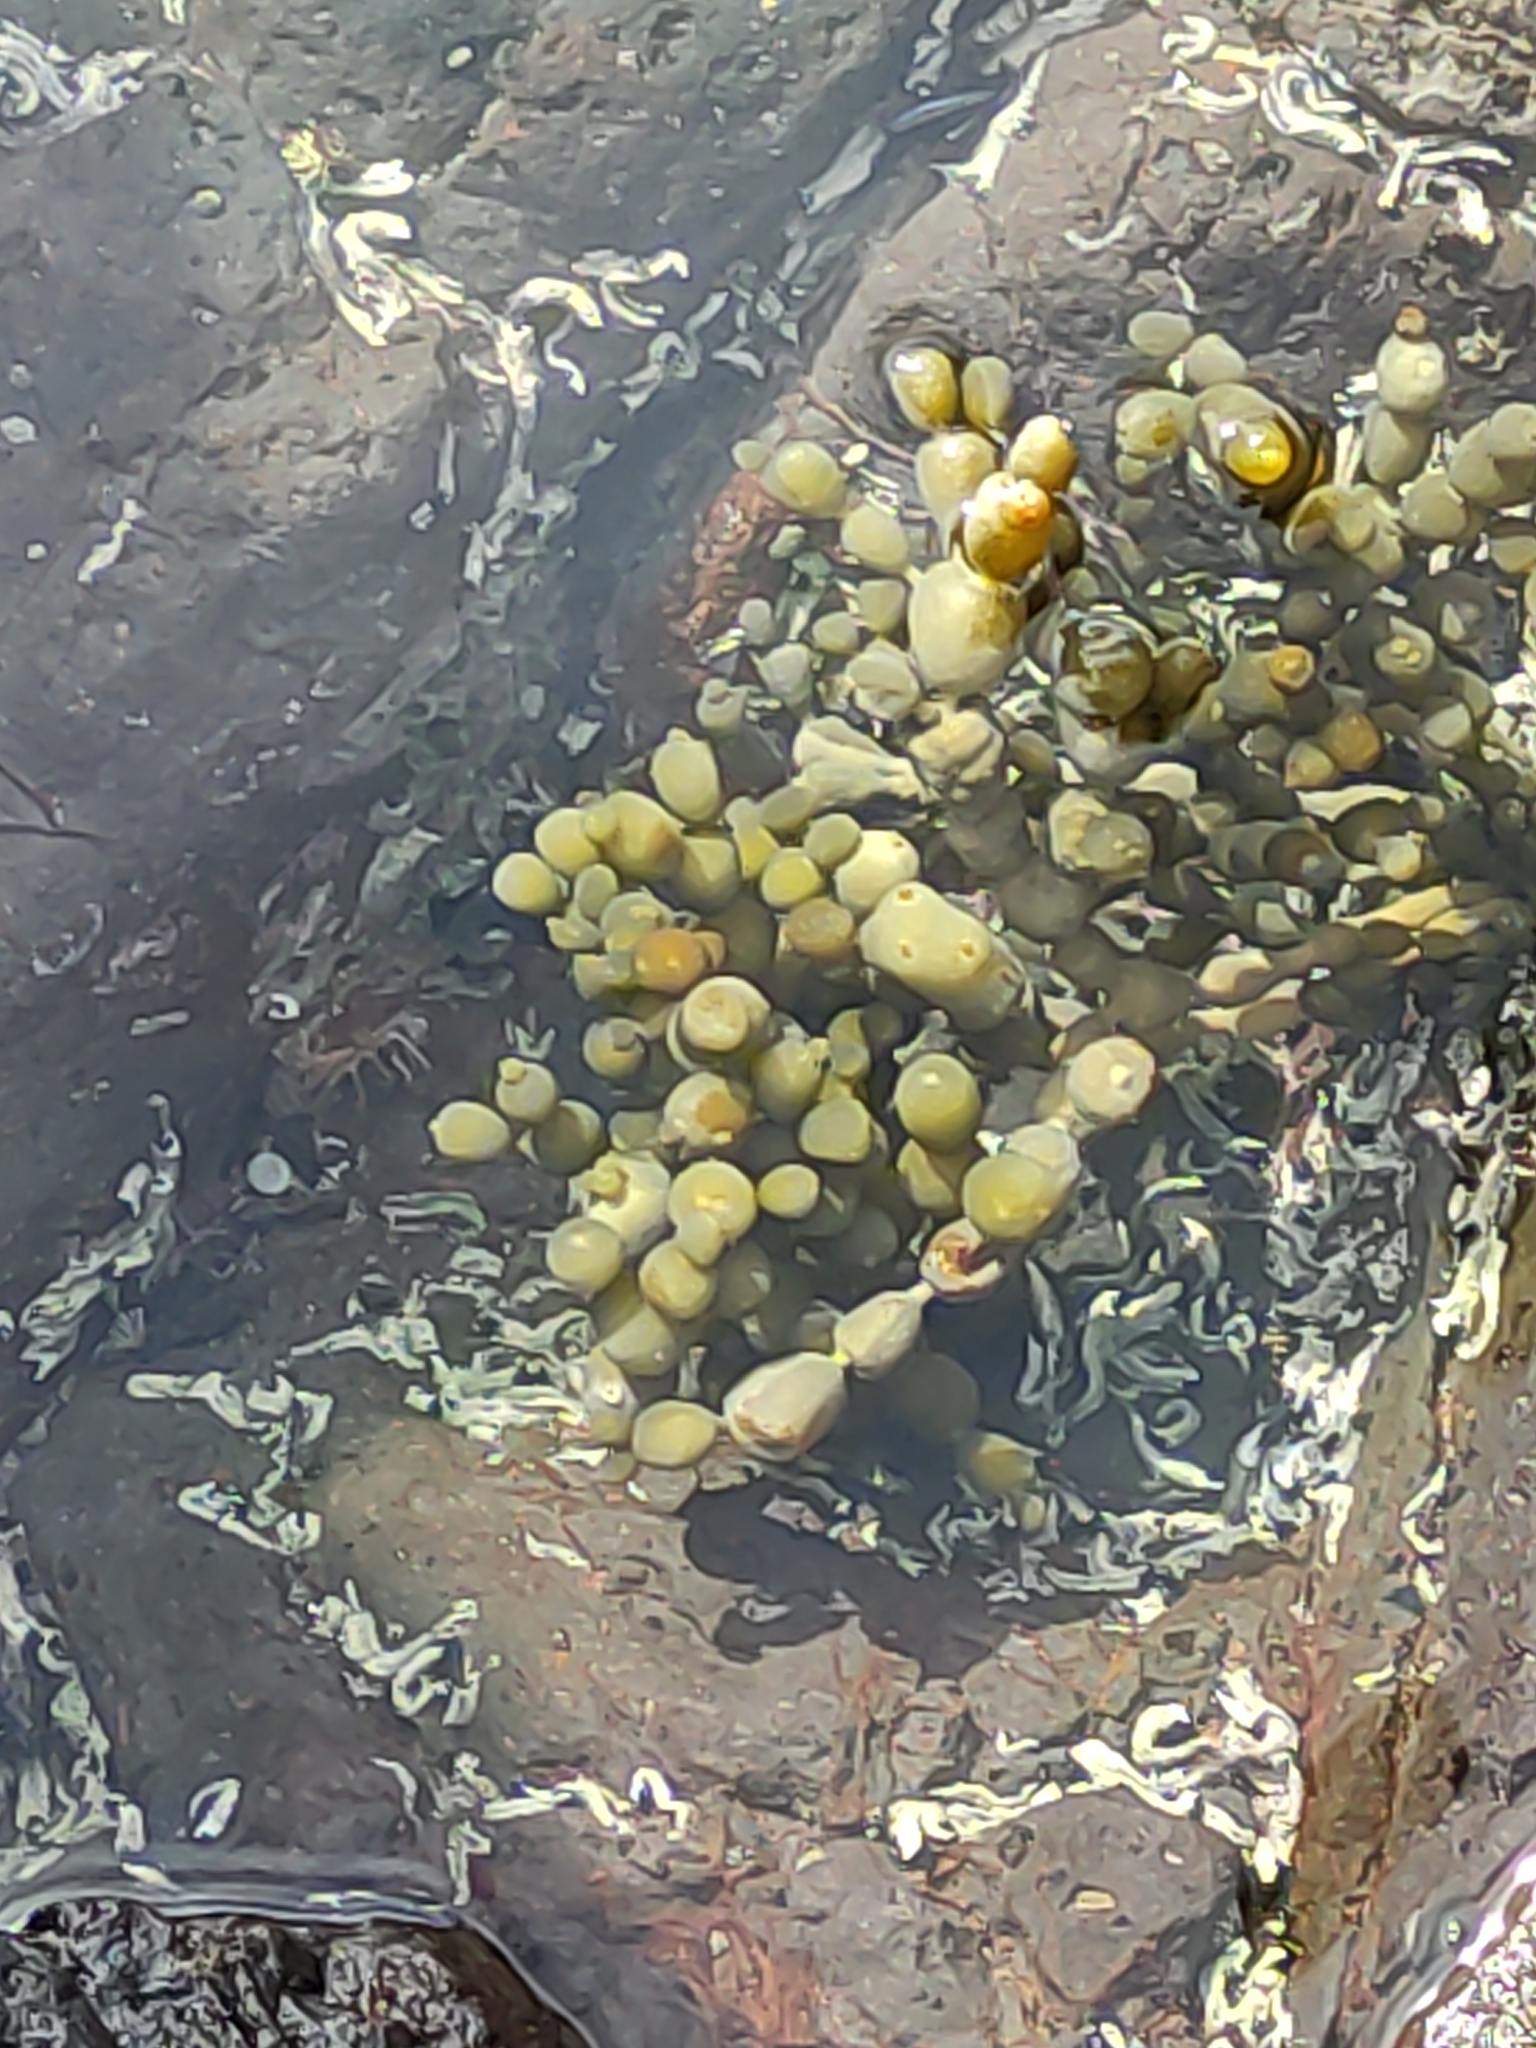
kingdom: Chromista
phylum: Ochrophyta
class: Phaeophyceae
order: Fucales
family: Hormosiraceae
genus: Hormosira
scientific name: Hormosira banksii
